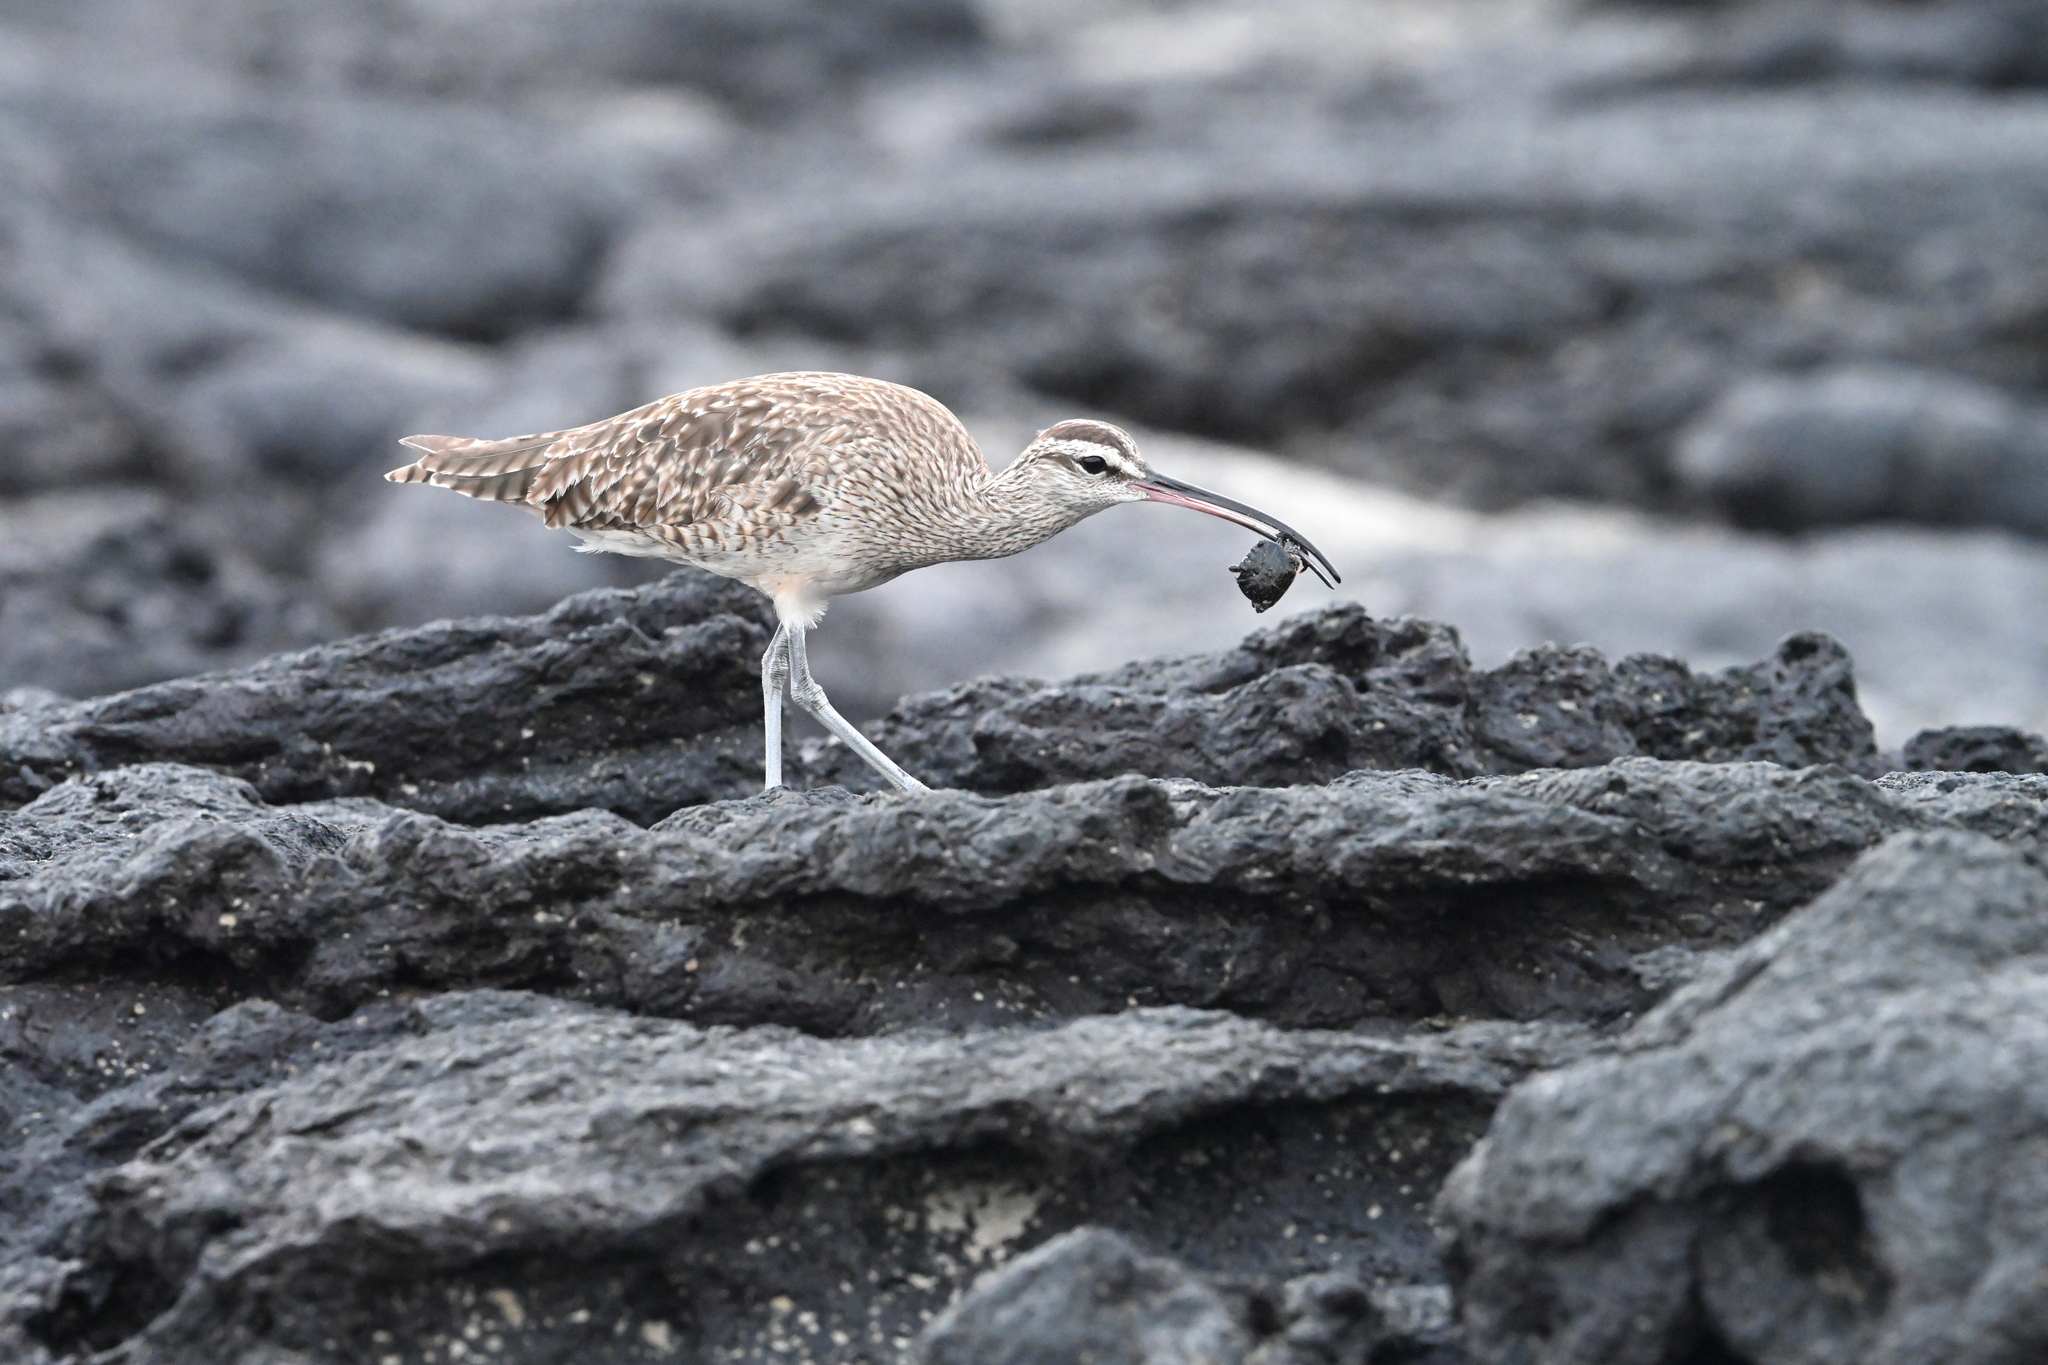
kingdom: Animalia
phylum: Chordata
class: Aves
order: Charadriiformes
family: Scolopacidae
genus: Numenius
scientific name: Numenius phaeopus
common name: Whimbrel
